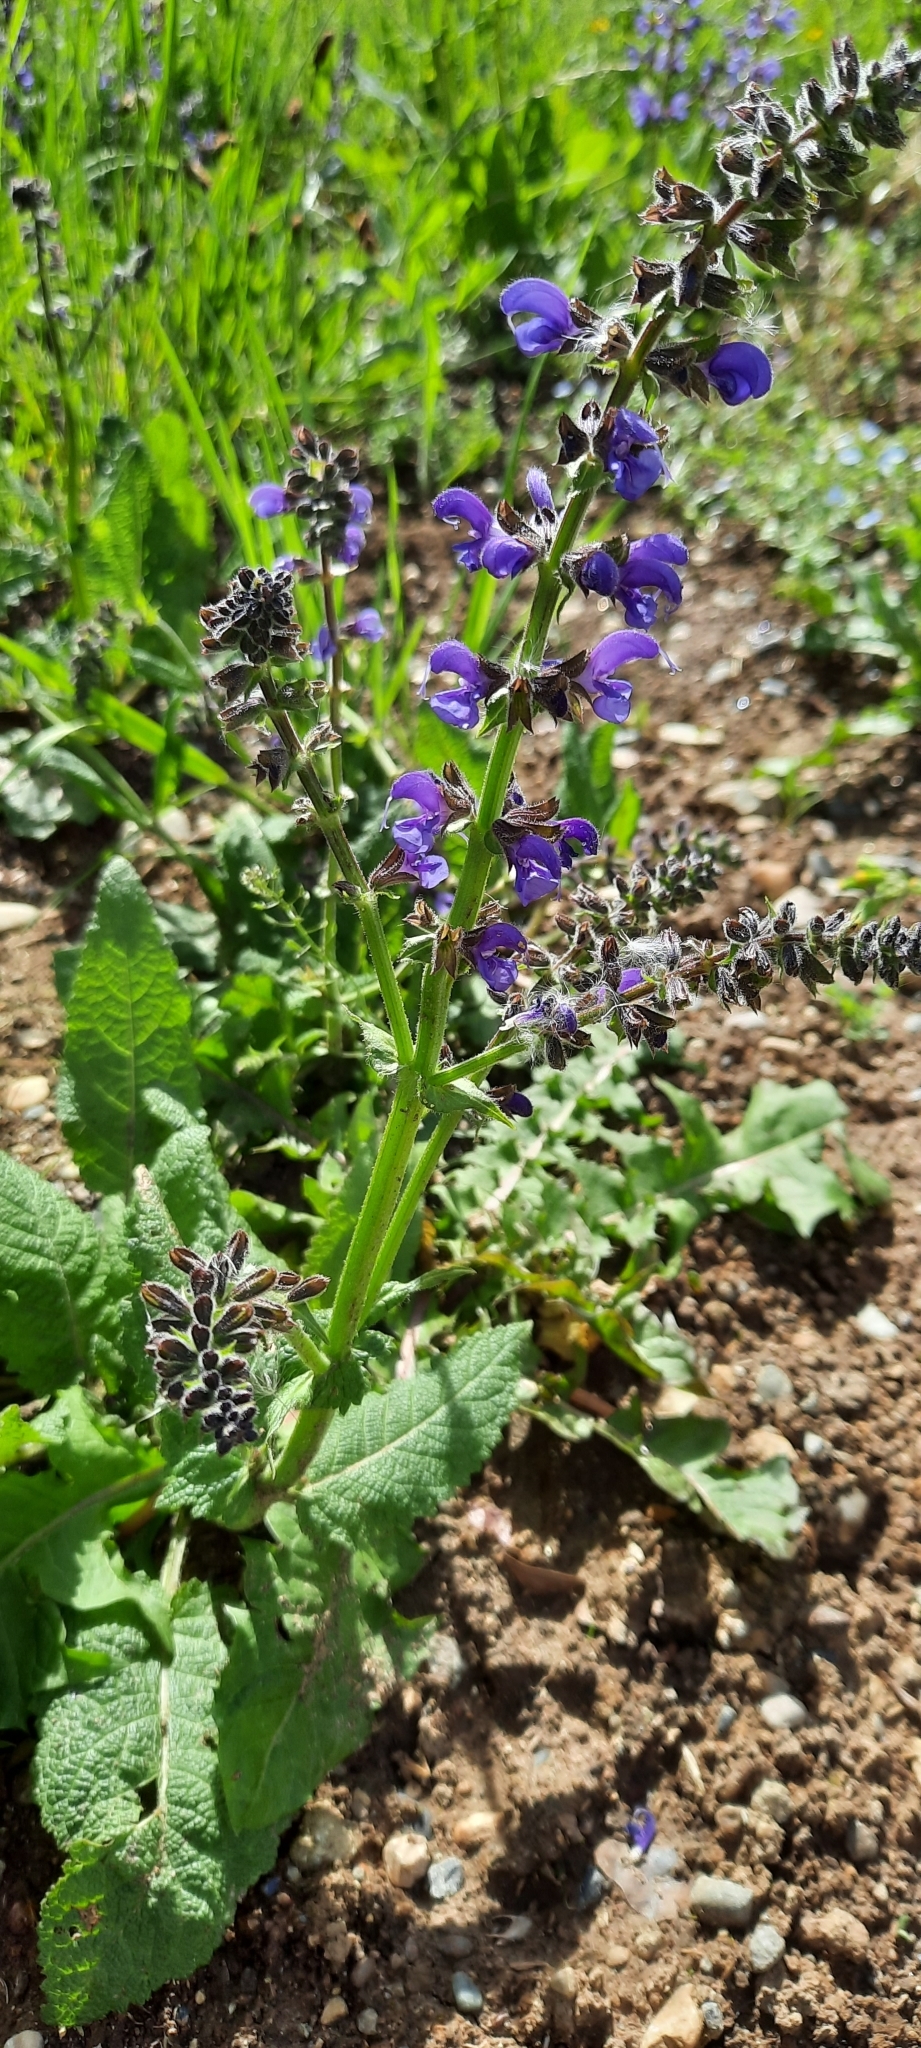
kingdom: Plantae
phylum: Tracheophyta
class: Magnoliopsida
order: Lamiales
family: Lamiaceae
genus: Salvia
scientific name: Salvia pratensis
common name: Meadow sage
